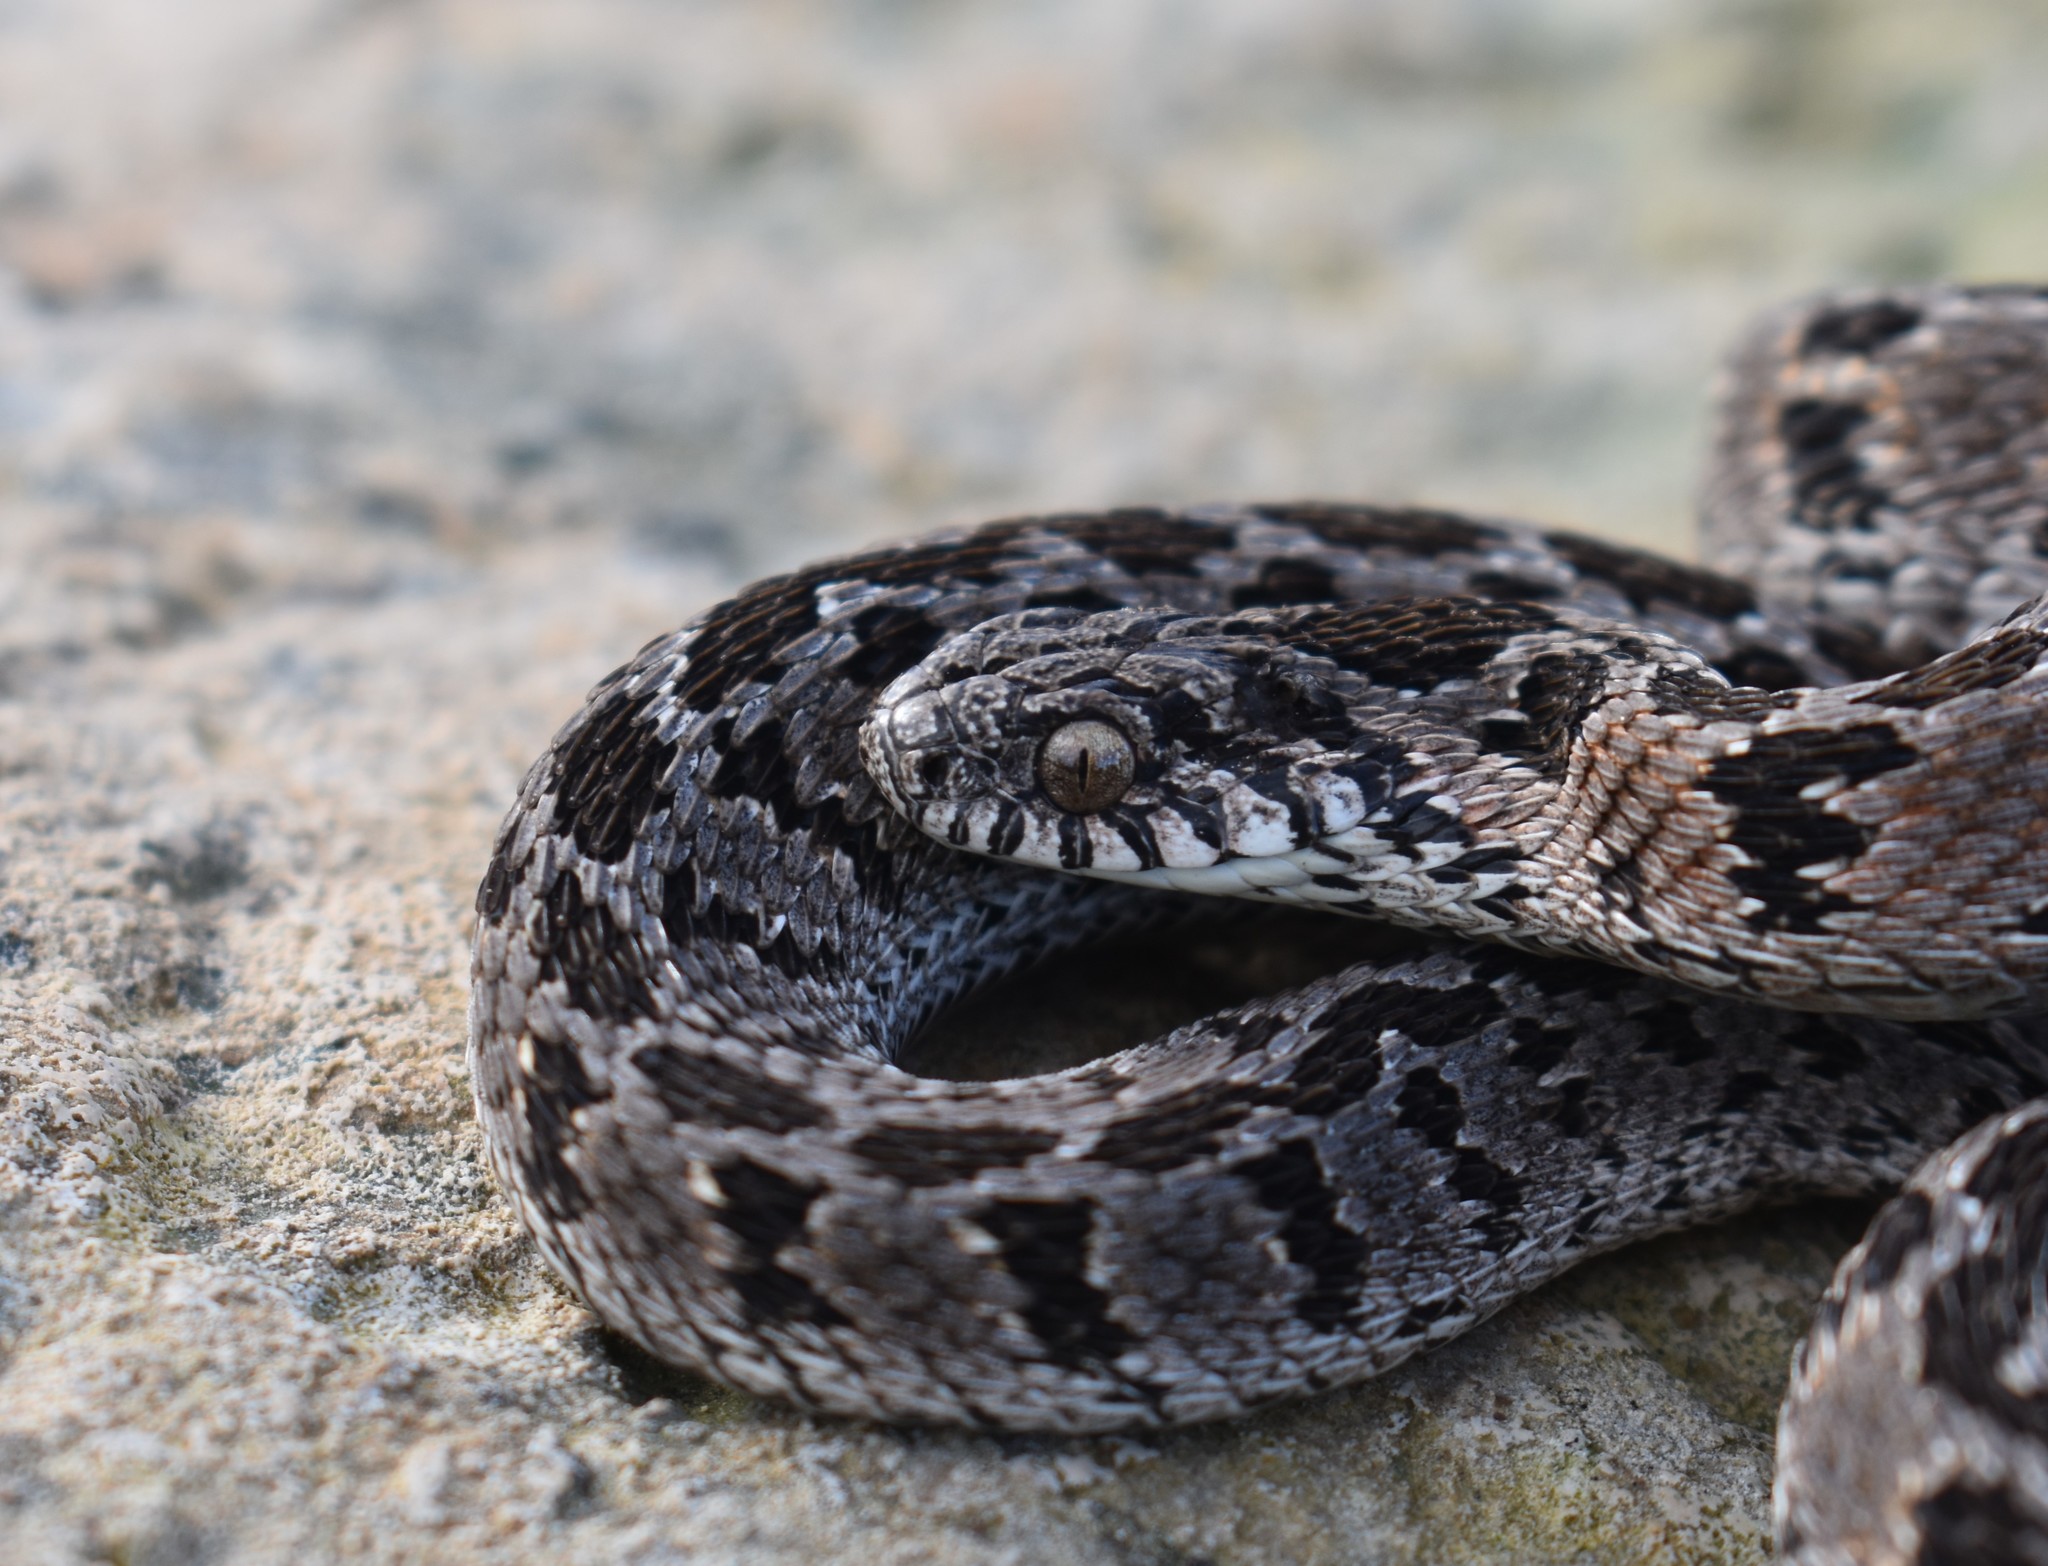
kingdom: Animalia
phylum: Chordata
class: Squamata
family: Colubridae
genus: Dasypeltis
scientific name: Dasypeltis scabra
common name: Common egg eater
